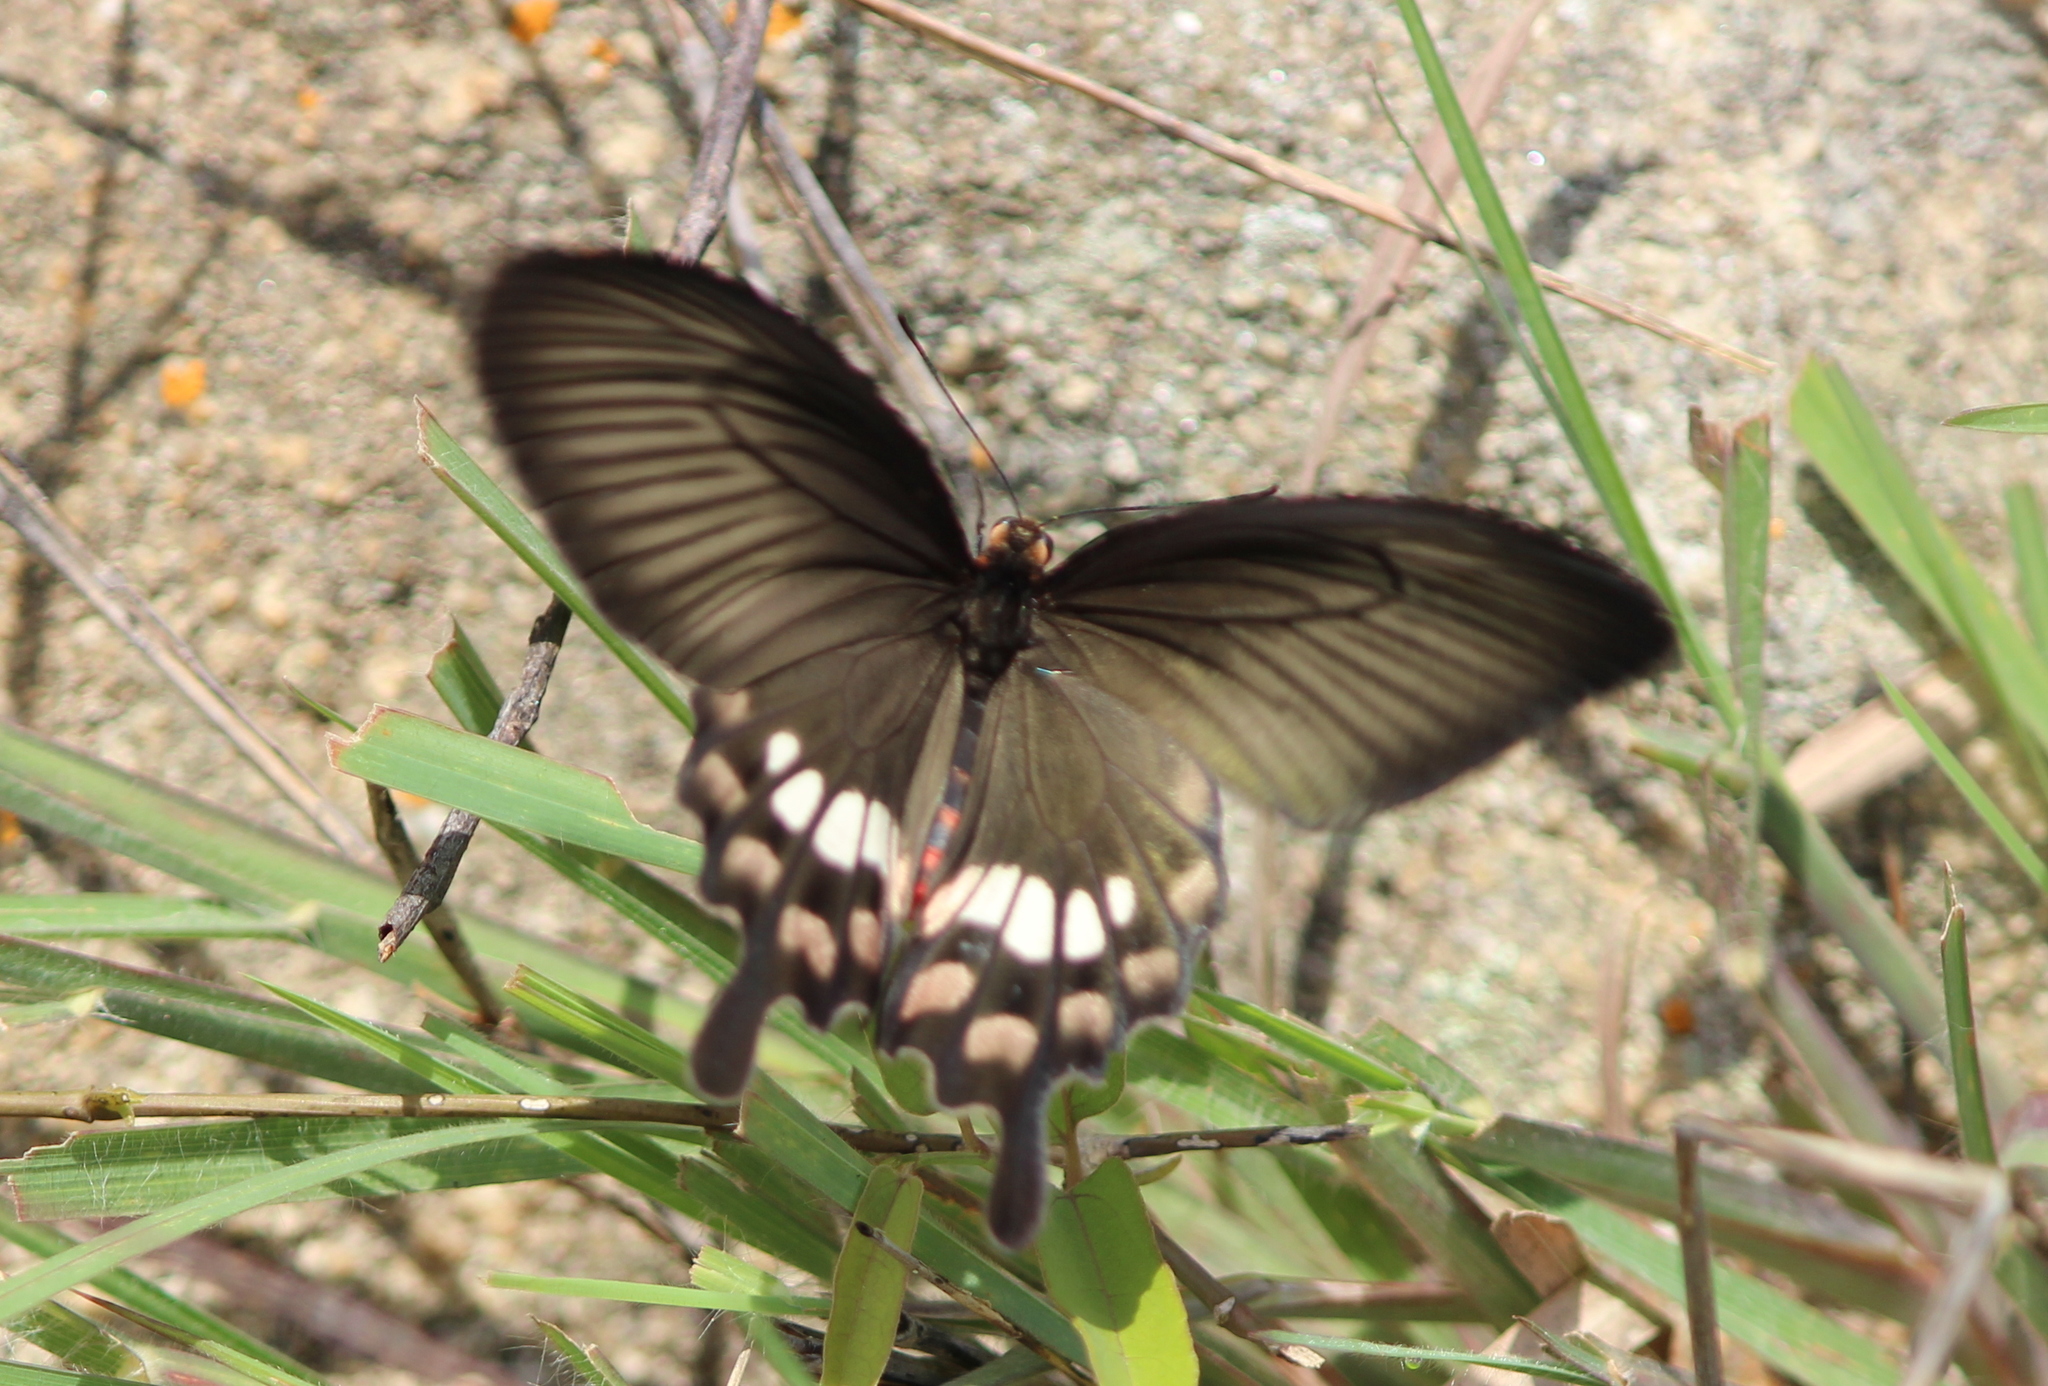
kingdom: Animalia
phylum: Arthropoda
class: Insecta
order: Lepidoptera
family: Papilionidae
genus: Pachliopta
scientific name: Pachliopta aristolochiae
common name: Common rose
